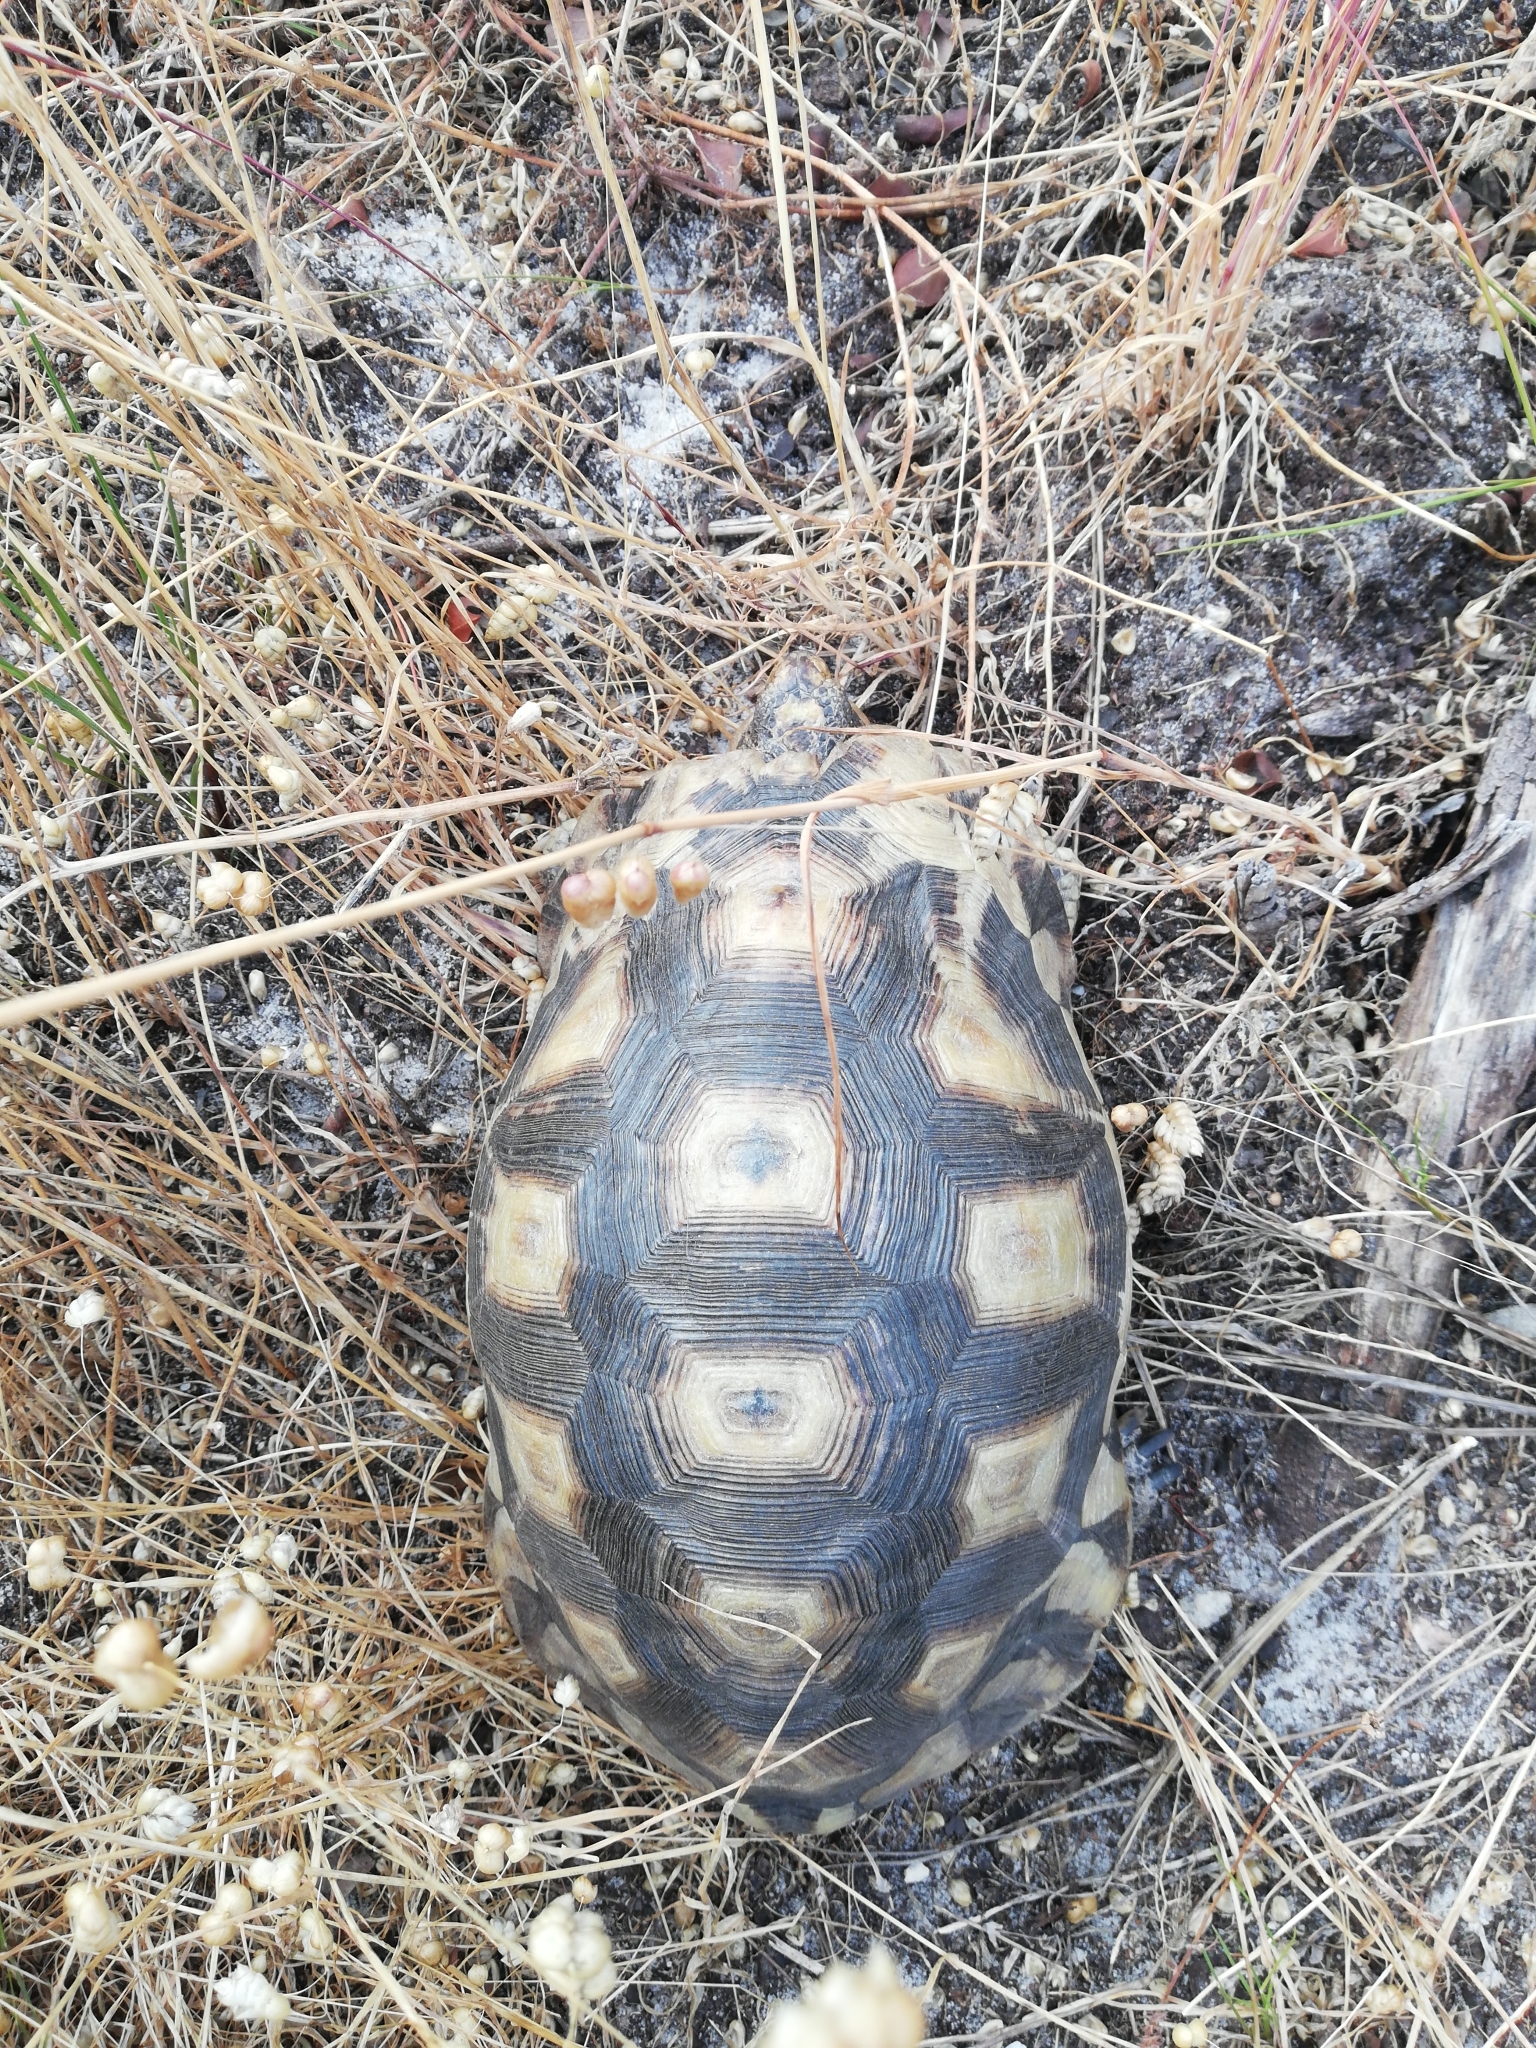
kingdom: Animalia
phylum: Chordata
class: Testudines
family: Testudinidae
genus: Chersina
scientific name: Chersina angulata
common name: South african bowsprit tortoise
